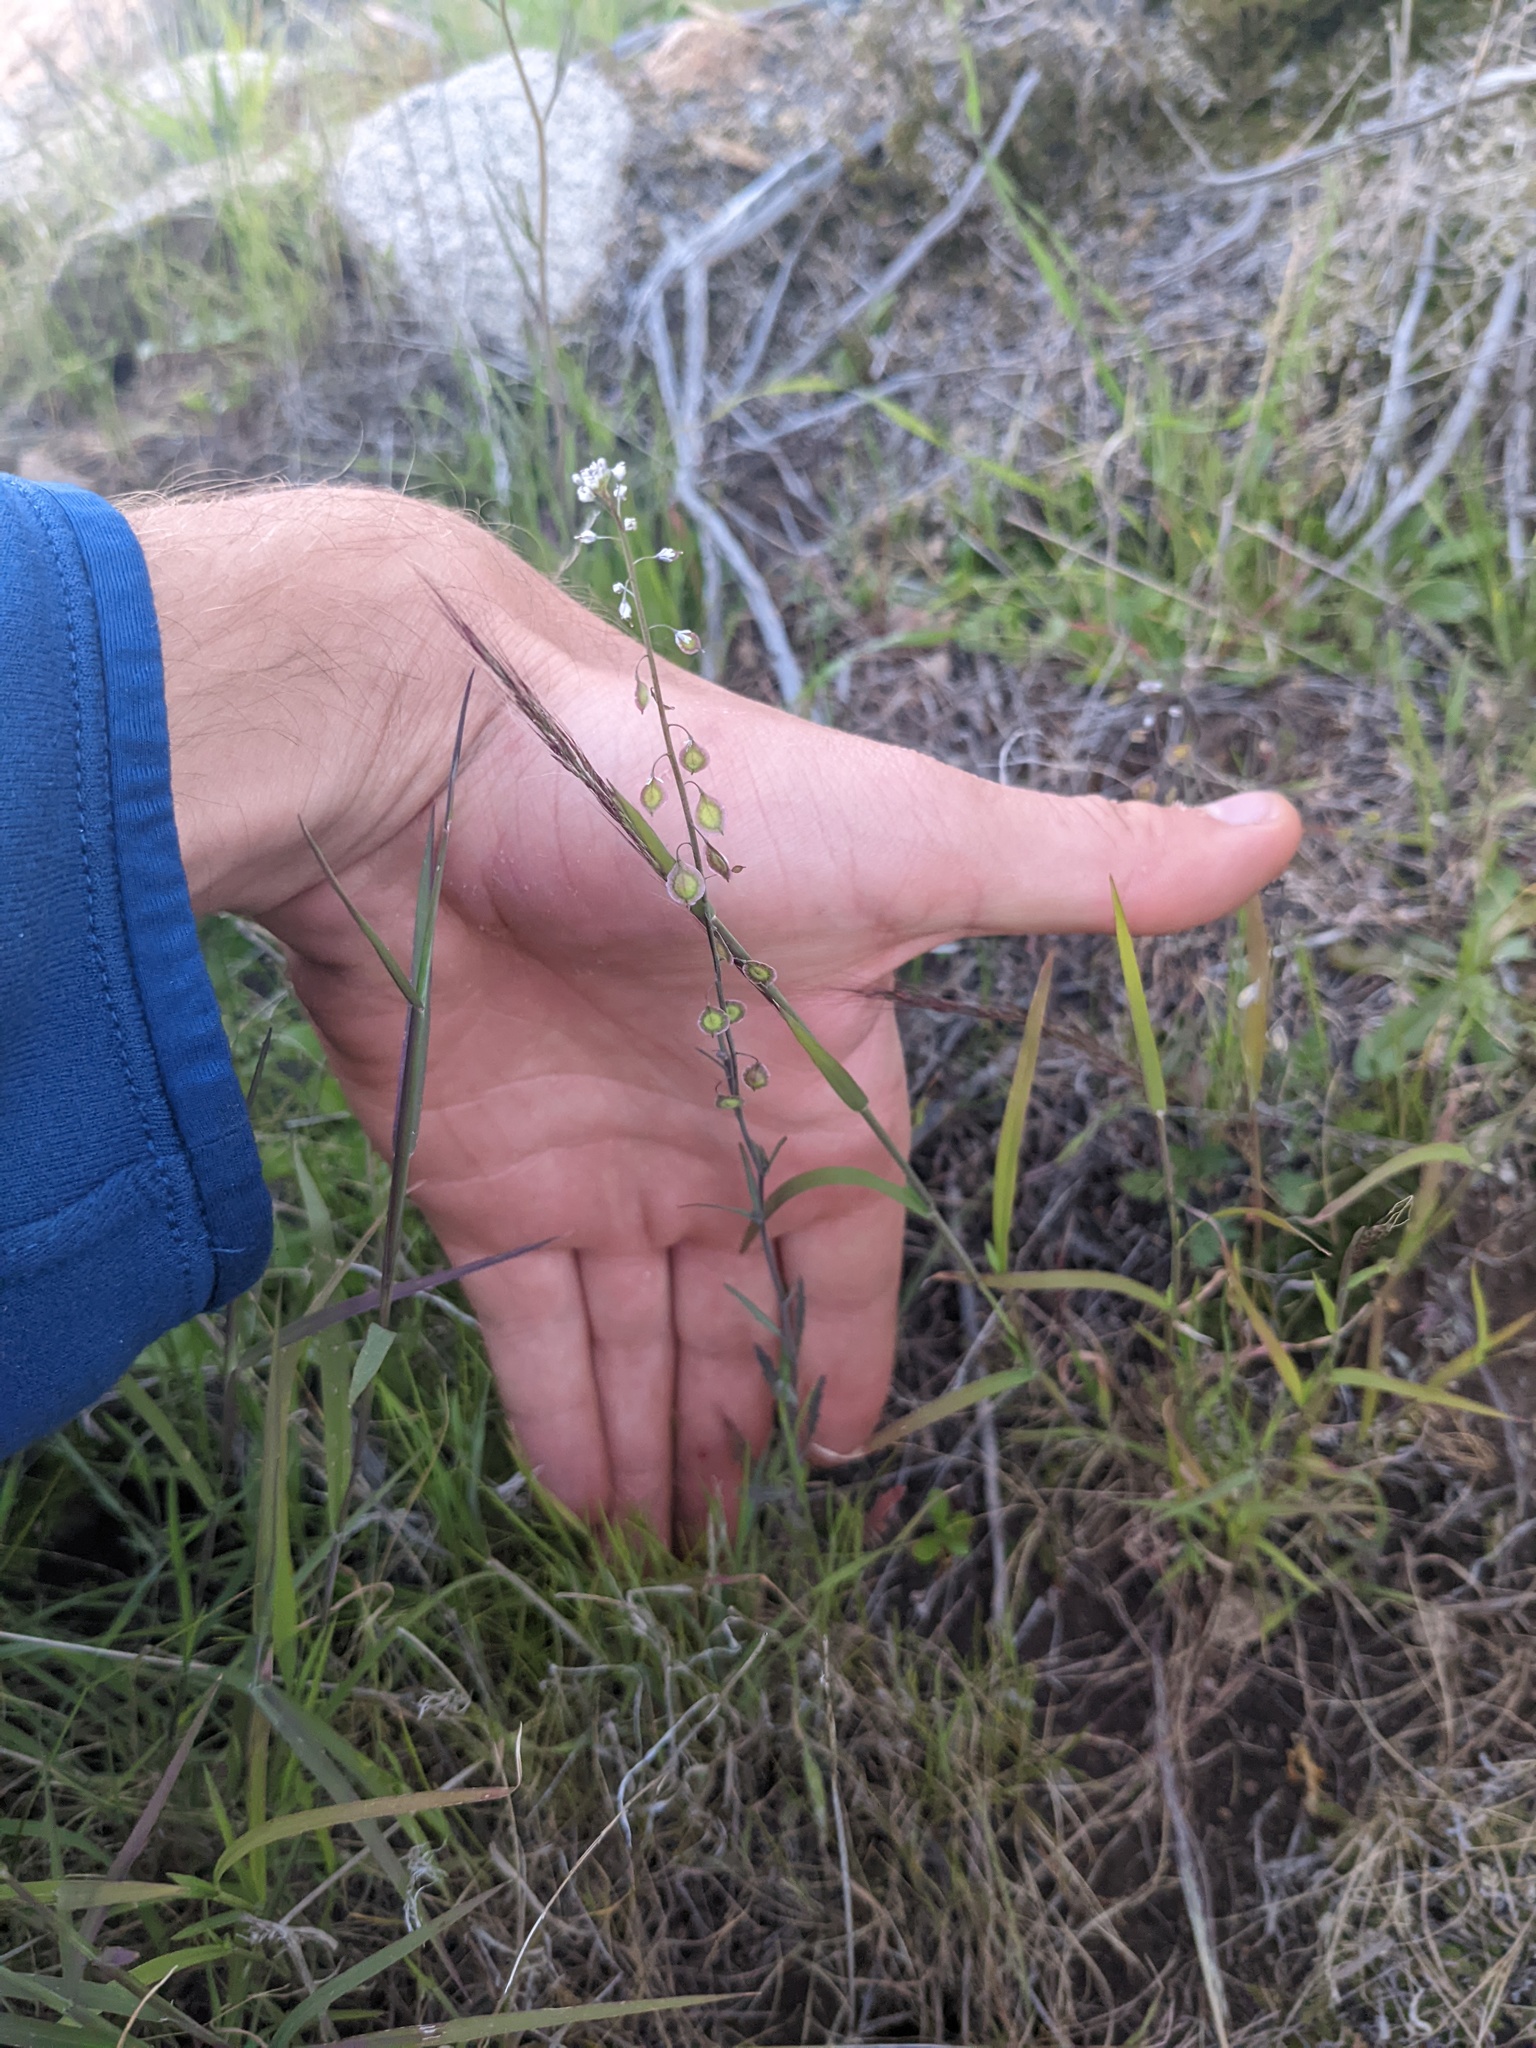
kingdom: Plantae
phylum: Tracheophyta
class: Magnoliopsida
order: Brassicales
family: Brassicaceae
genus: Thysanocarpus
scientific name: Thysanocarpus curvipes
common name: Sand fringepod
